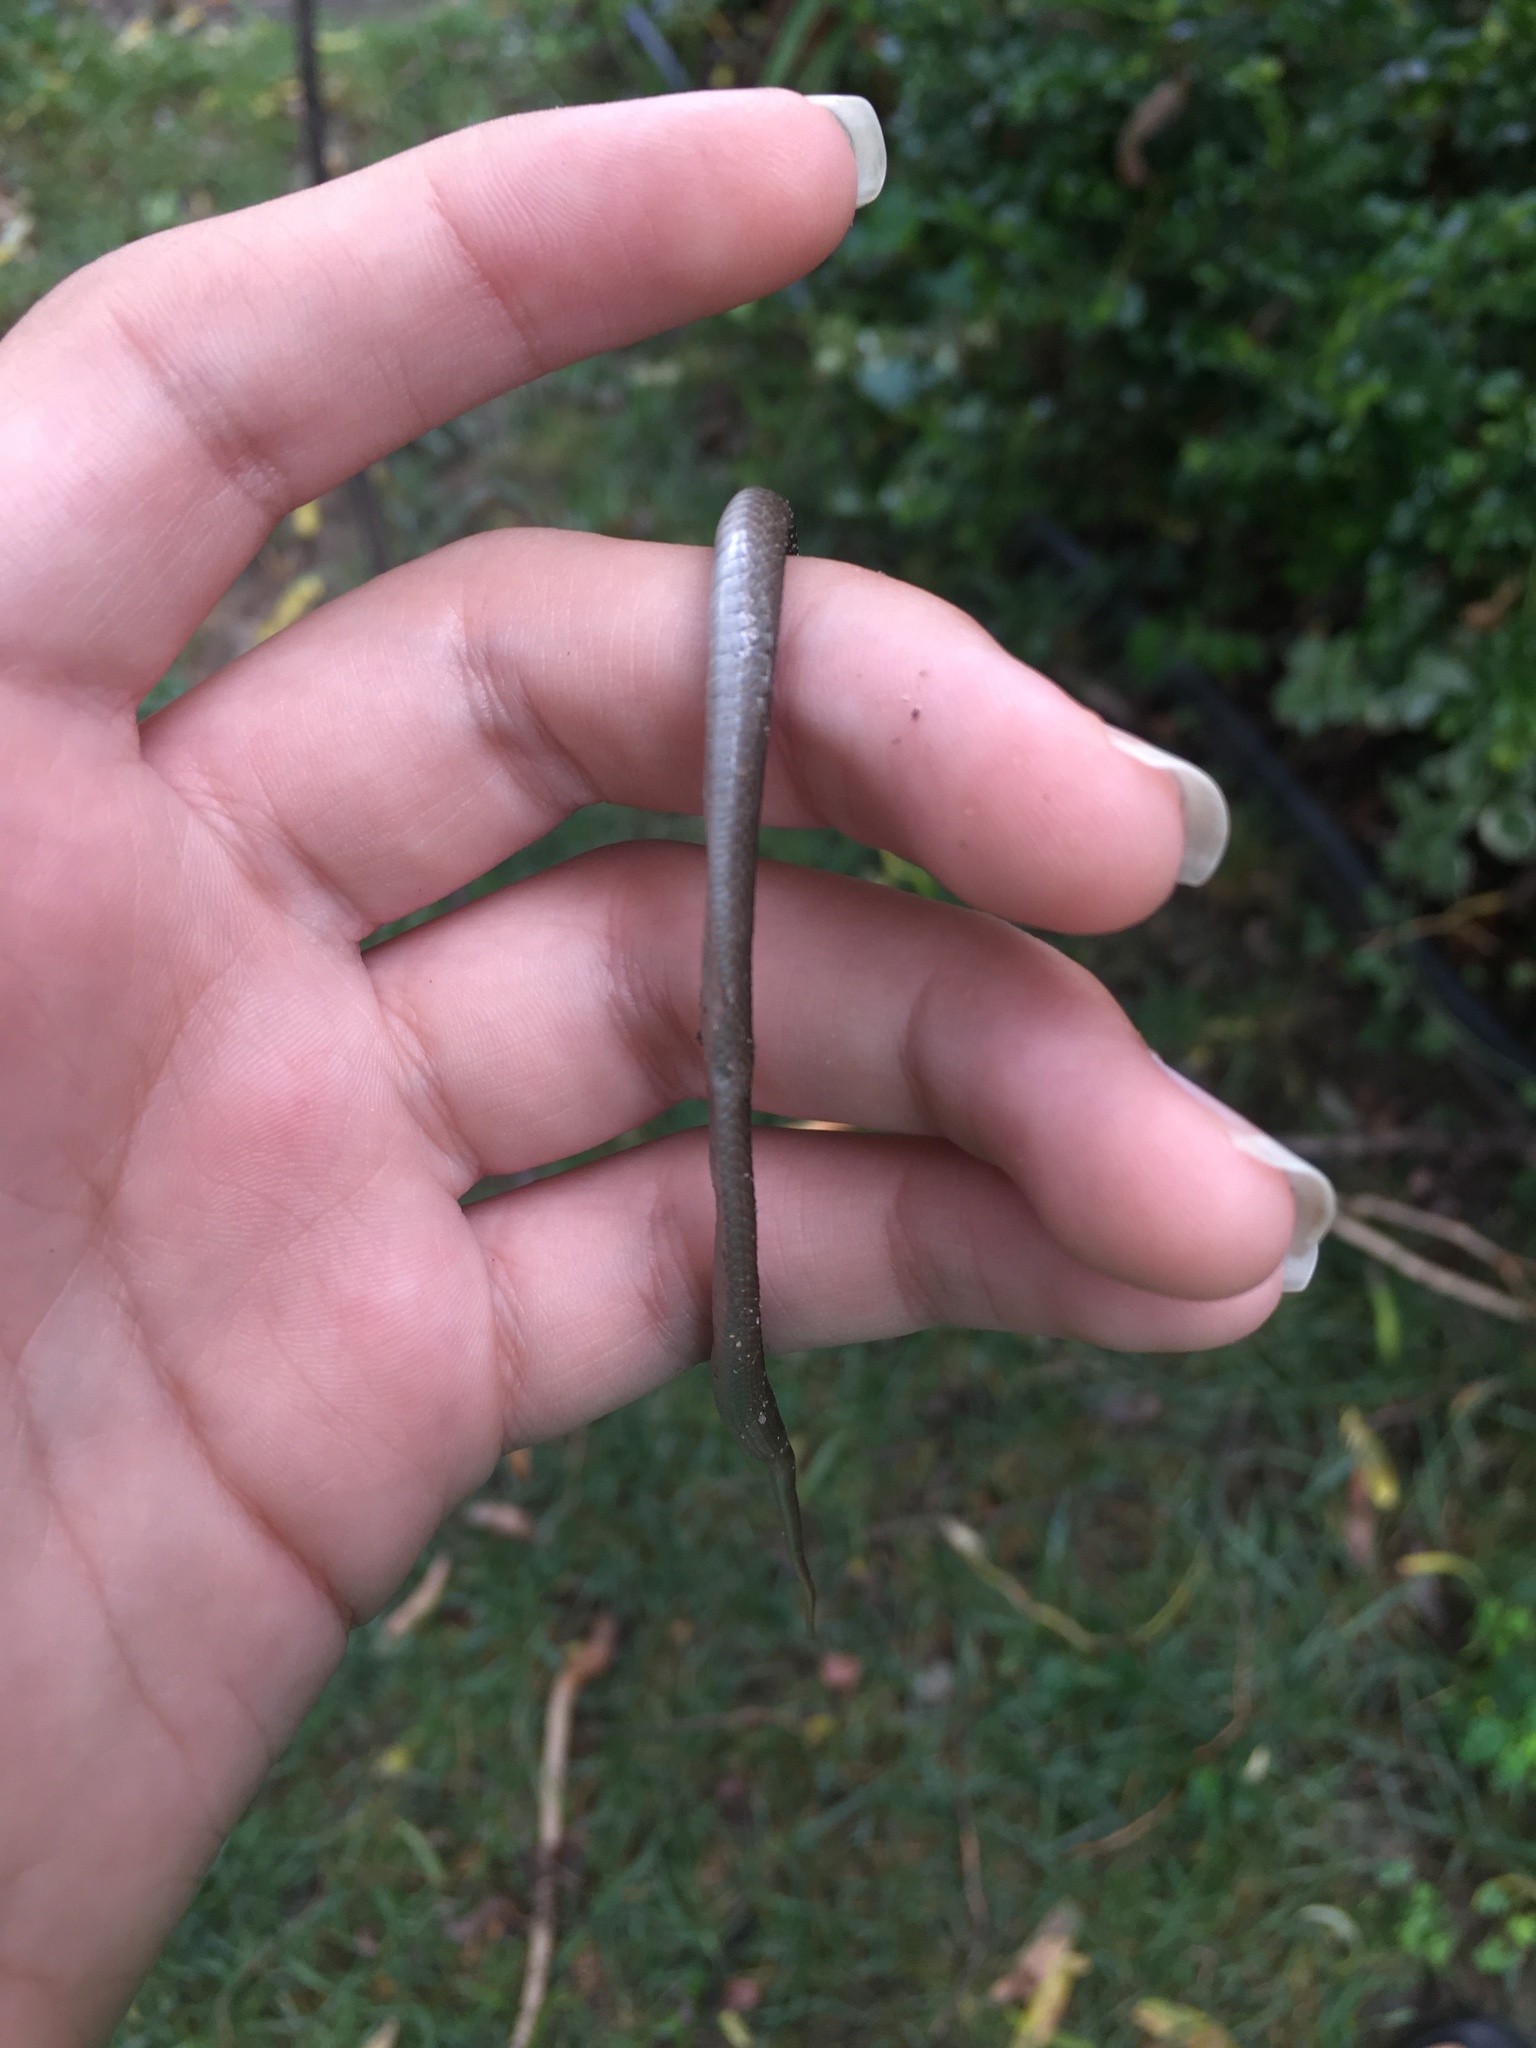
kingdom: Animalia
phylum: Chordata
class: Squamata
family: Colubridae
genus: Storeria
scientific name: Storeria dekayi
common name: (dekay’s) brown snake
